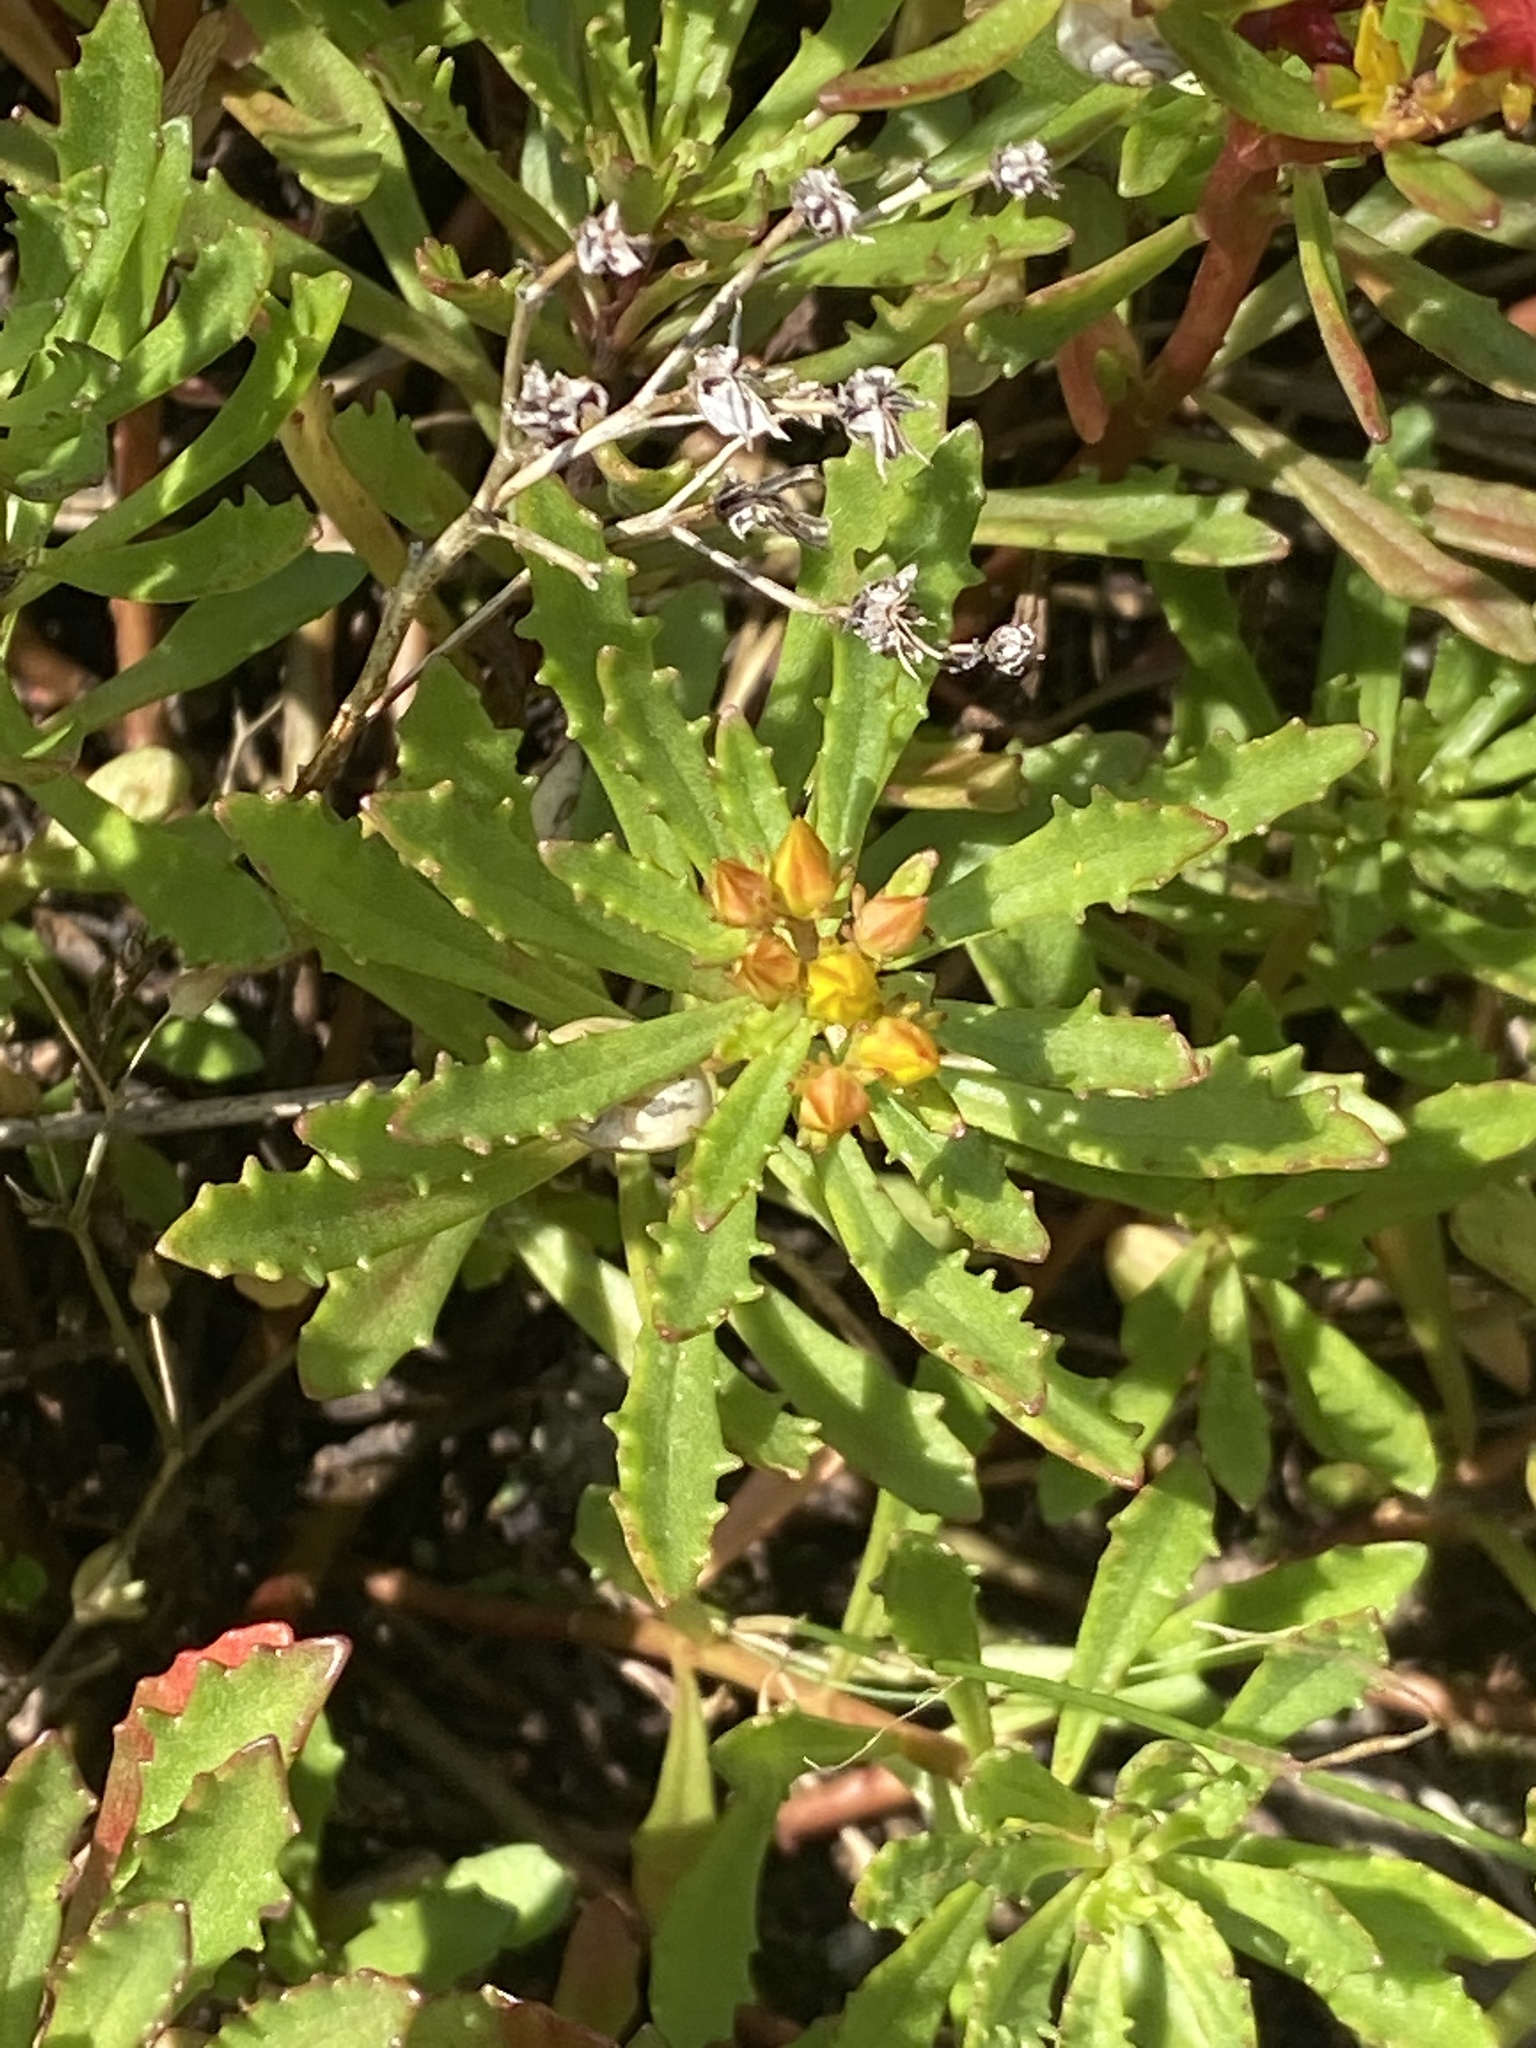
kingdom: Plantae
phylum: Tracheophyta
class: Magnoliopsida
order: Saxifragales
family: Crassulaceae
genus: Phedimus
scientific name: Phedimus hybridus
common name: Hybrid stonecrop
